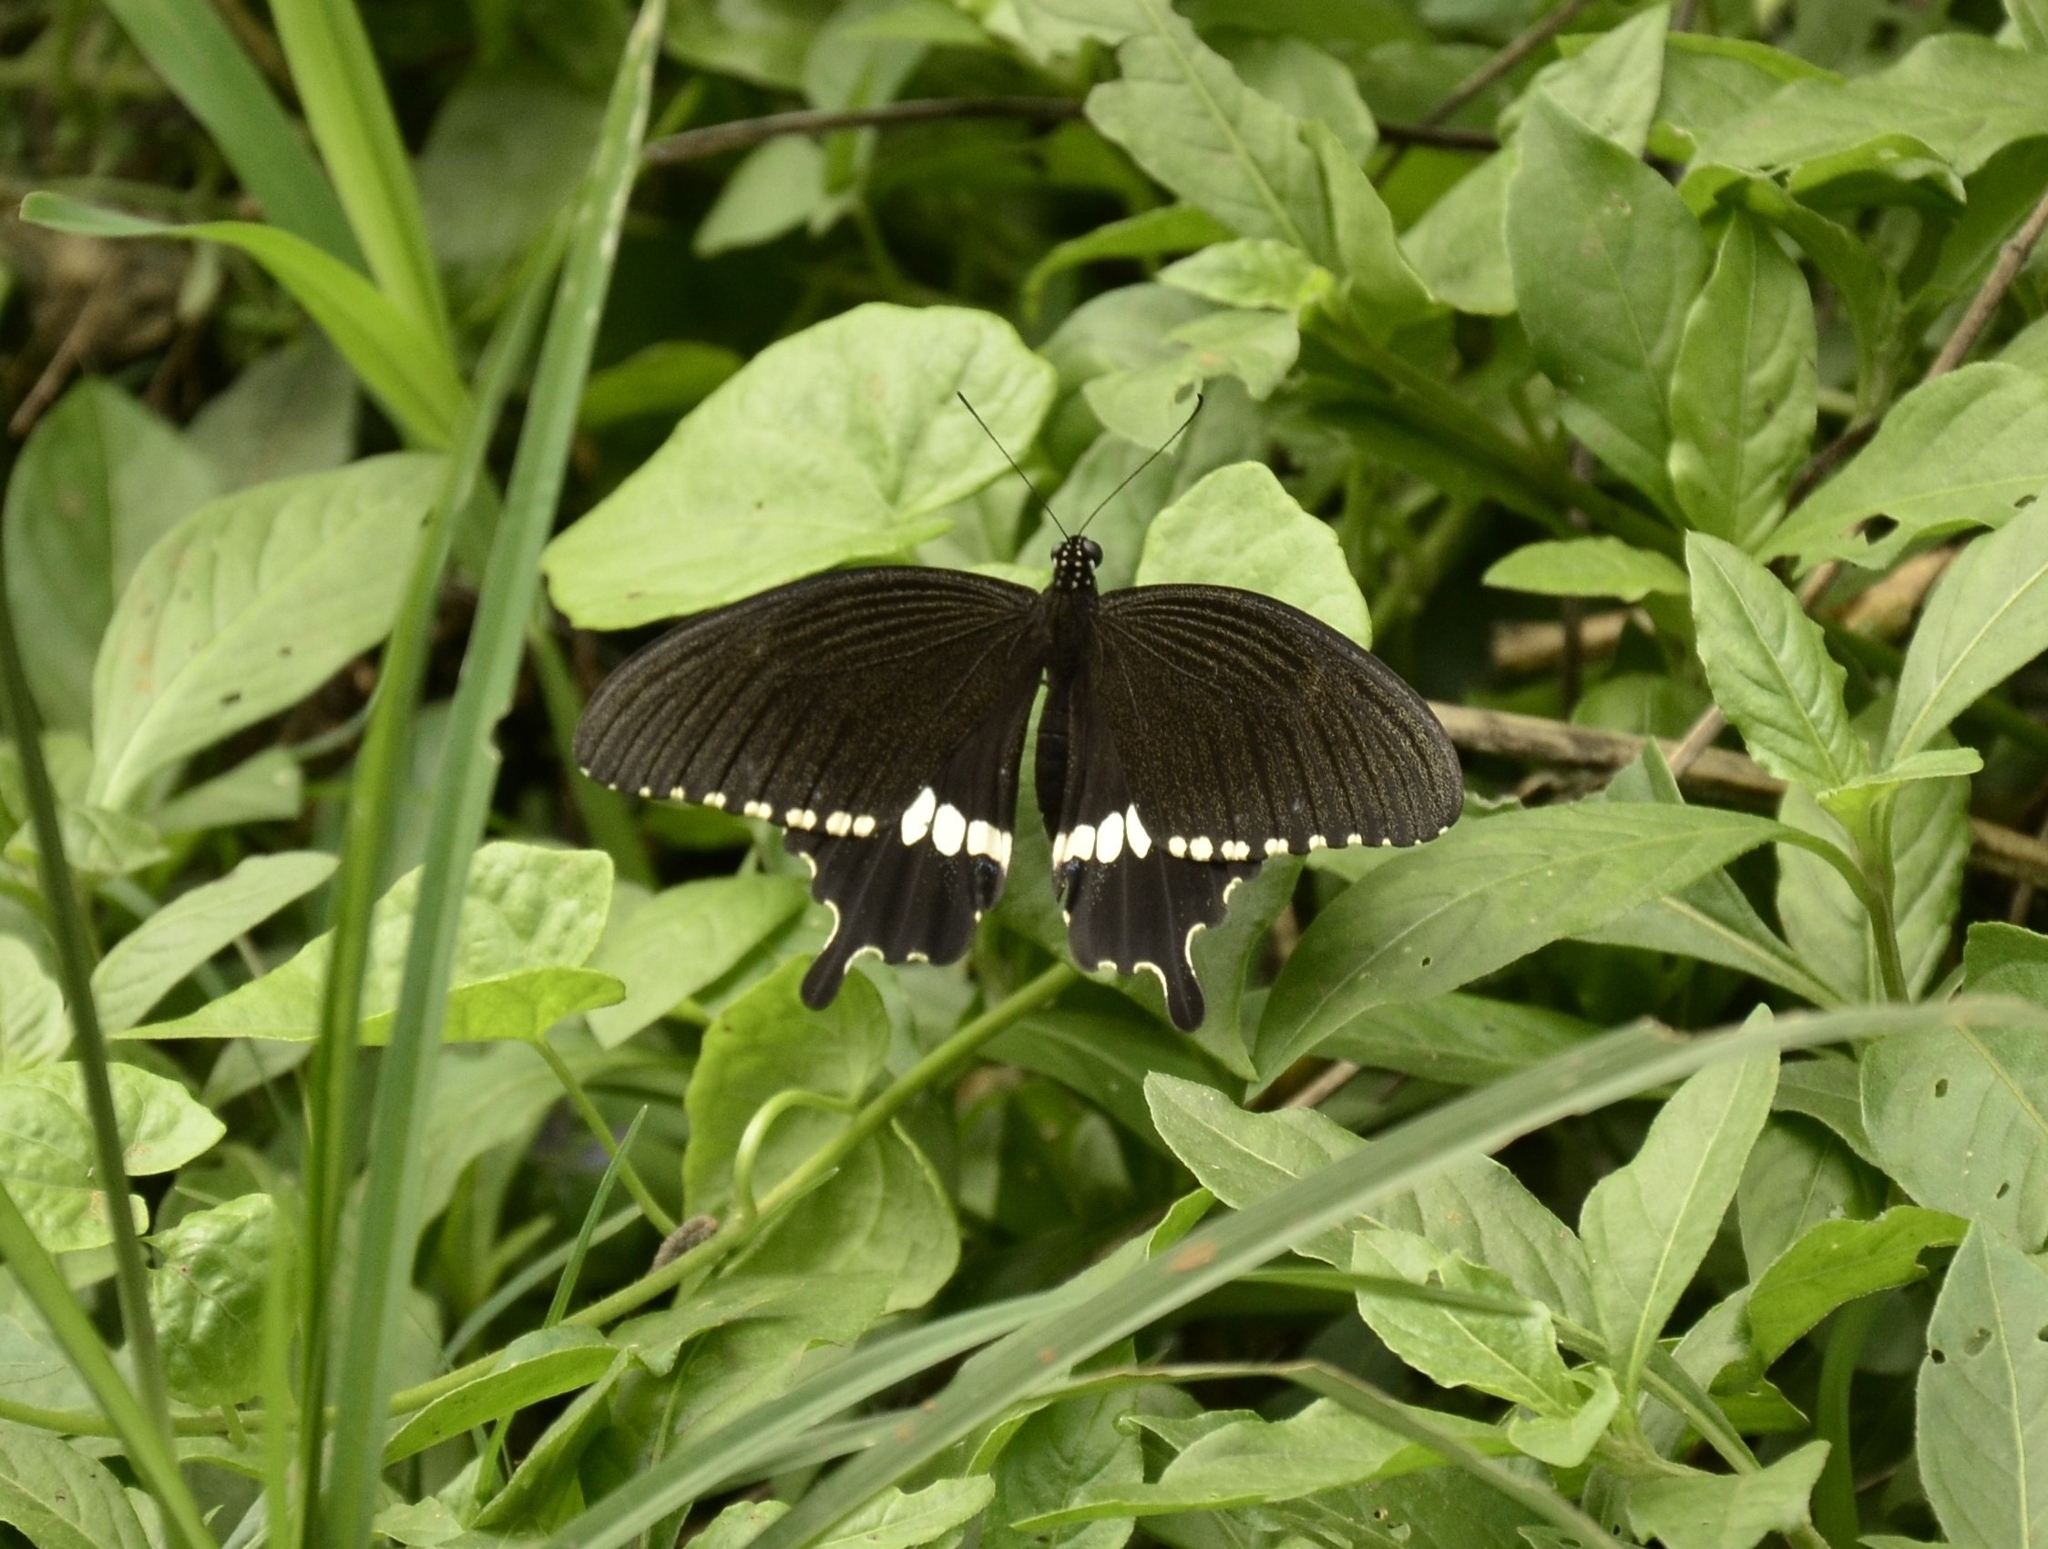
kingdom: Animalia
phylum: Arthropoda
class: Insecta
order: Lepidoptera
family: Papilionidae
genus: Papilio
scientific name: Papilio polytes
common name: Common mormon
